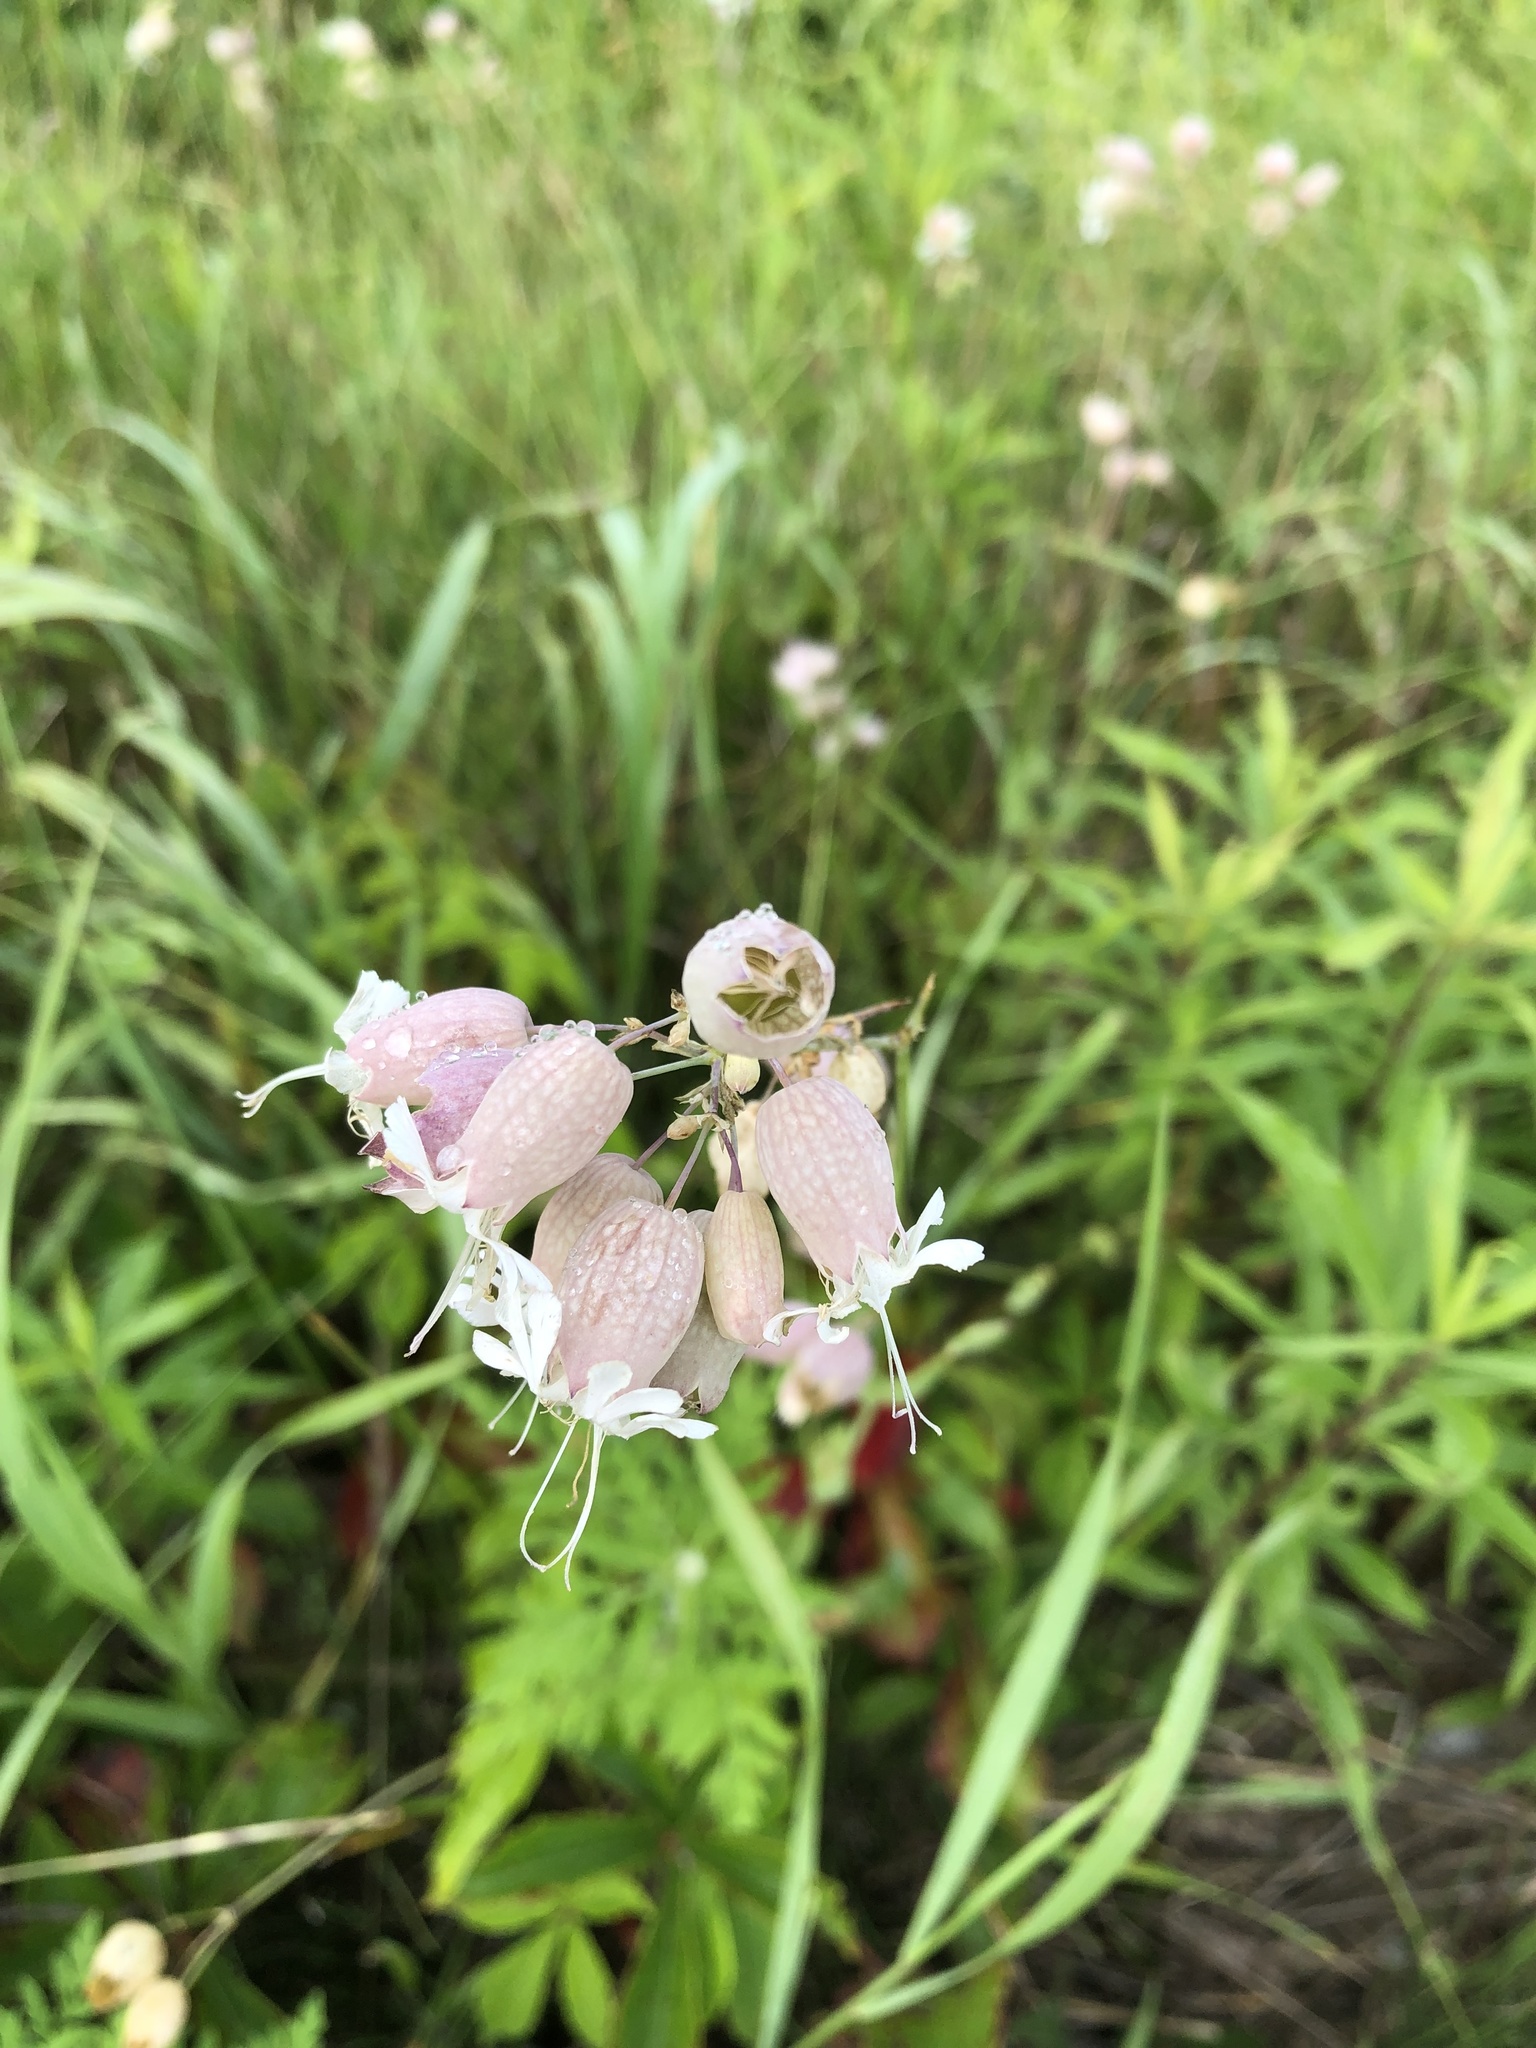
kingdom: Plantae
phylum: Tracheophyta
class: Magnoliopsida
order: Caryophyllales
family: Caryophyllaceae
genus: Silene
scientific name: Silene vulgaris
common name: Bladder campion
